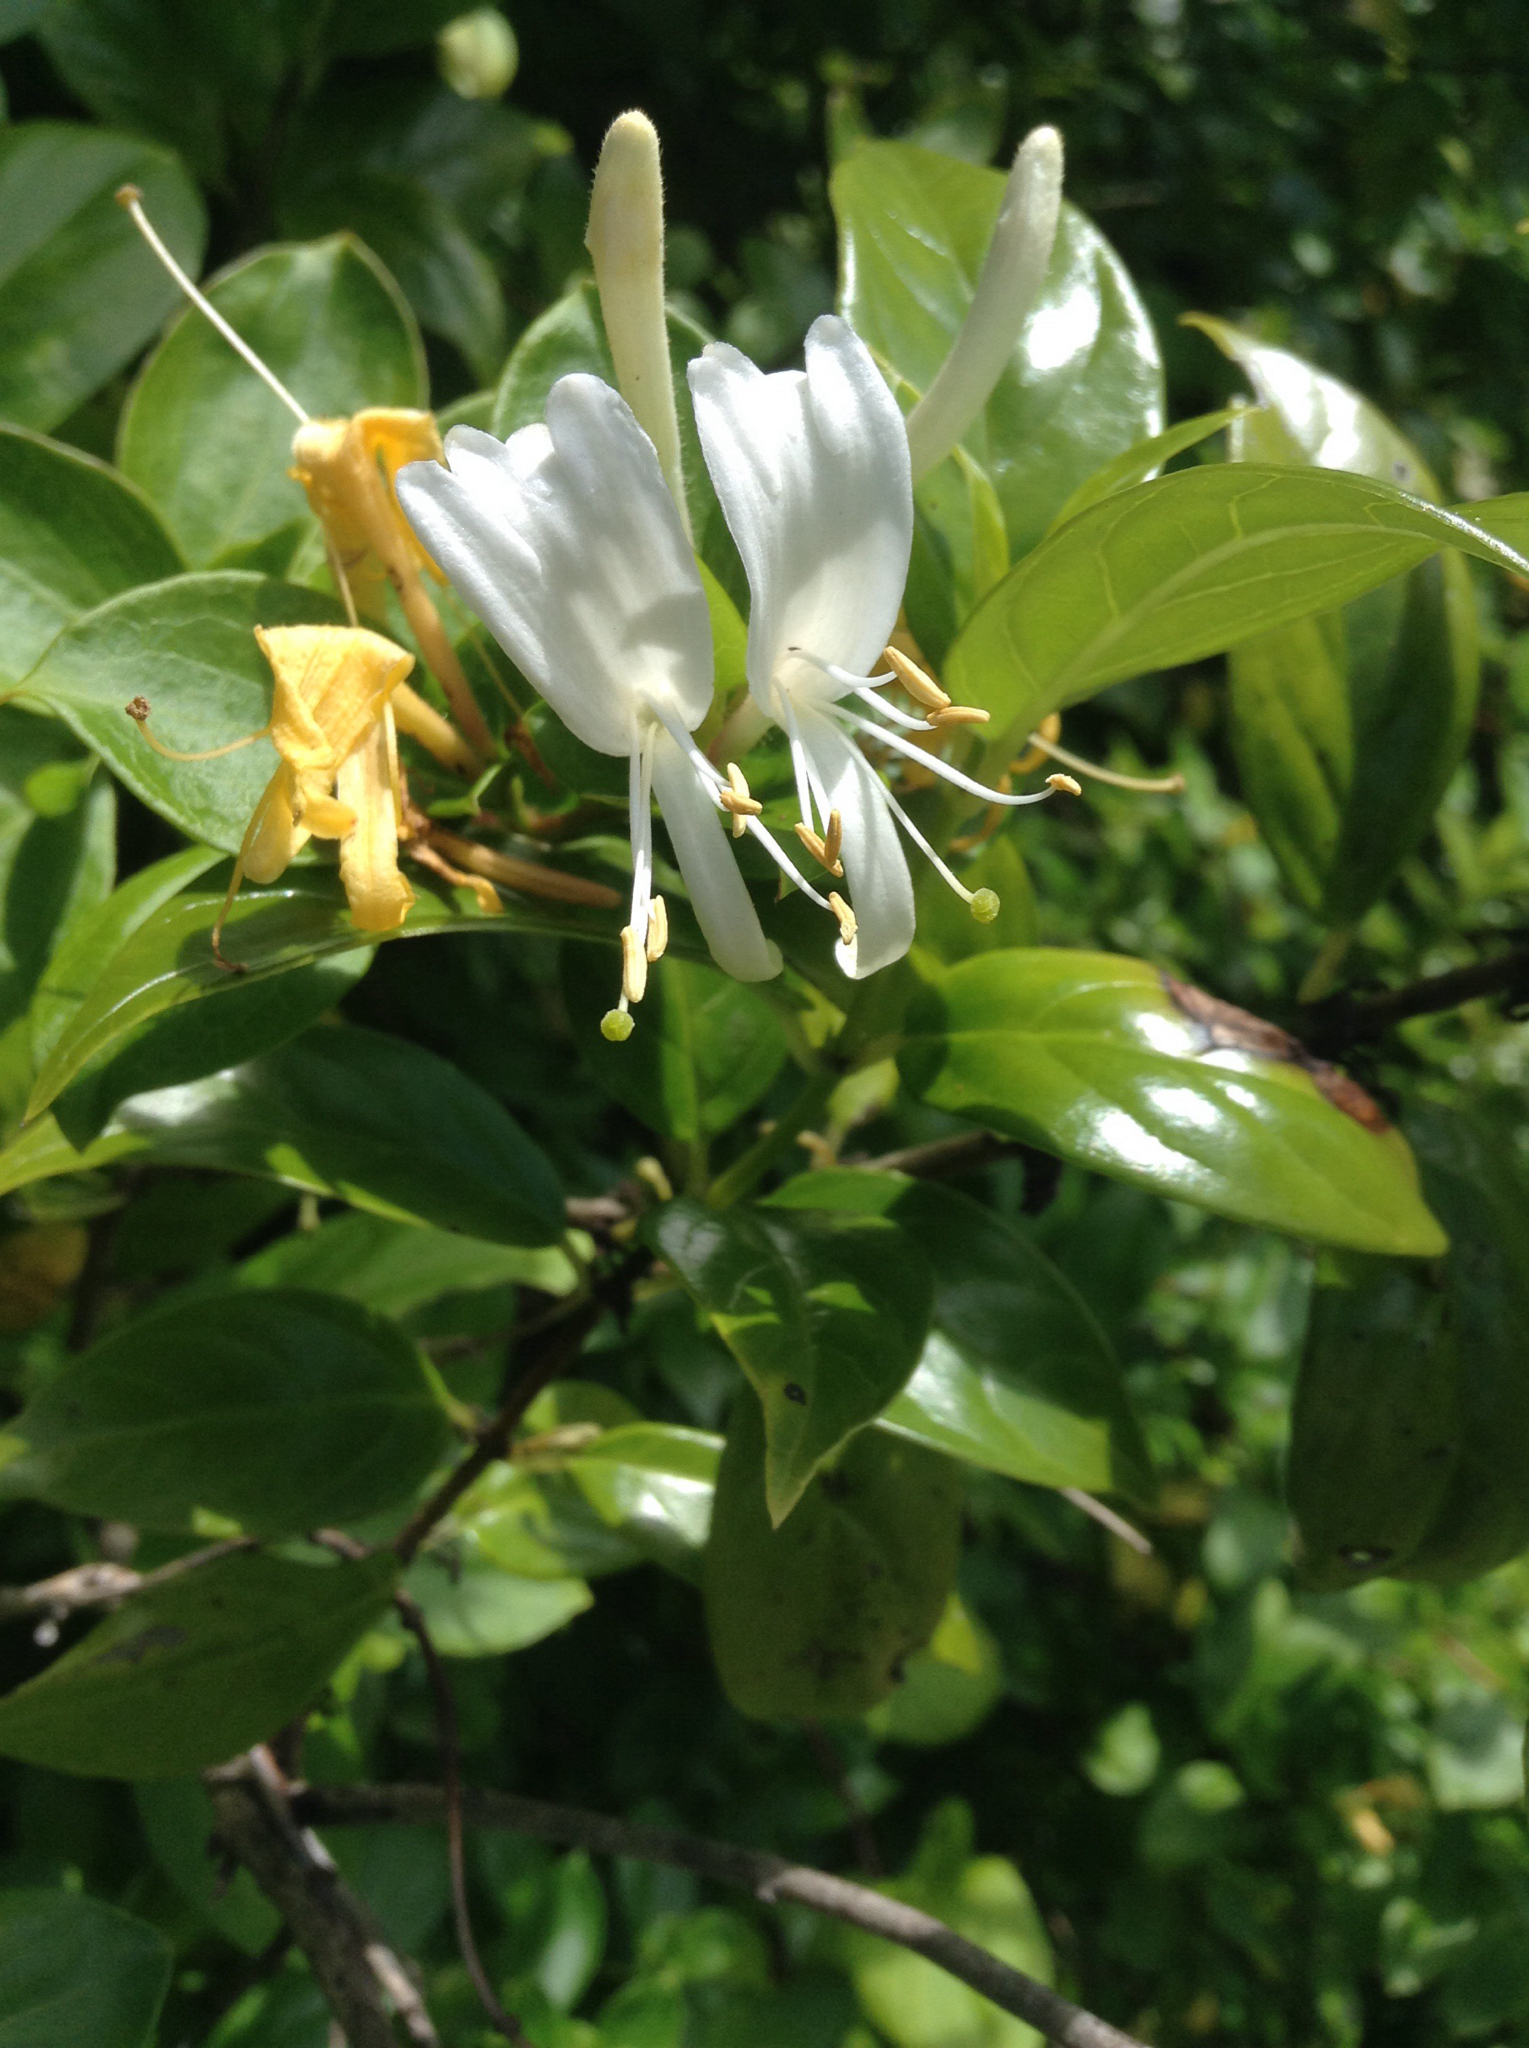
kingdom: Plantae
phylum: Tracheophyta
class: Magnoliopsida
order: Dipsacales
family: Caprifoliaceae
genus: Lonicera
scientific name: Lonicera japonica
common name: Japanese honeysuckle
